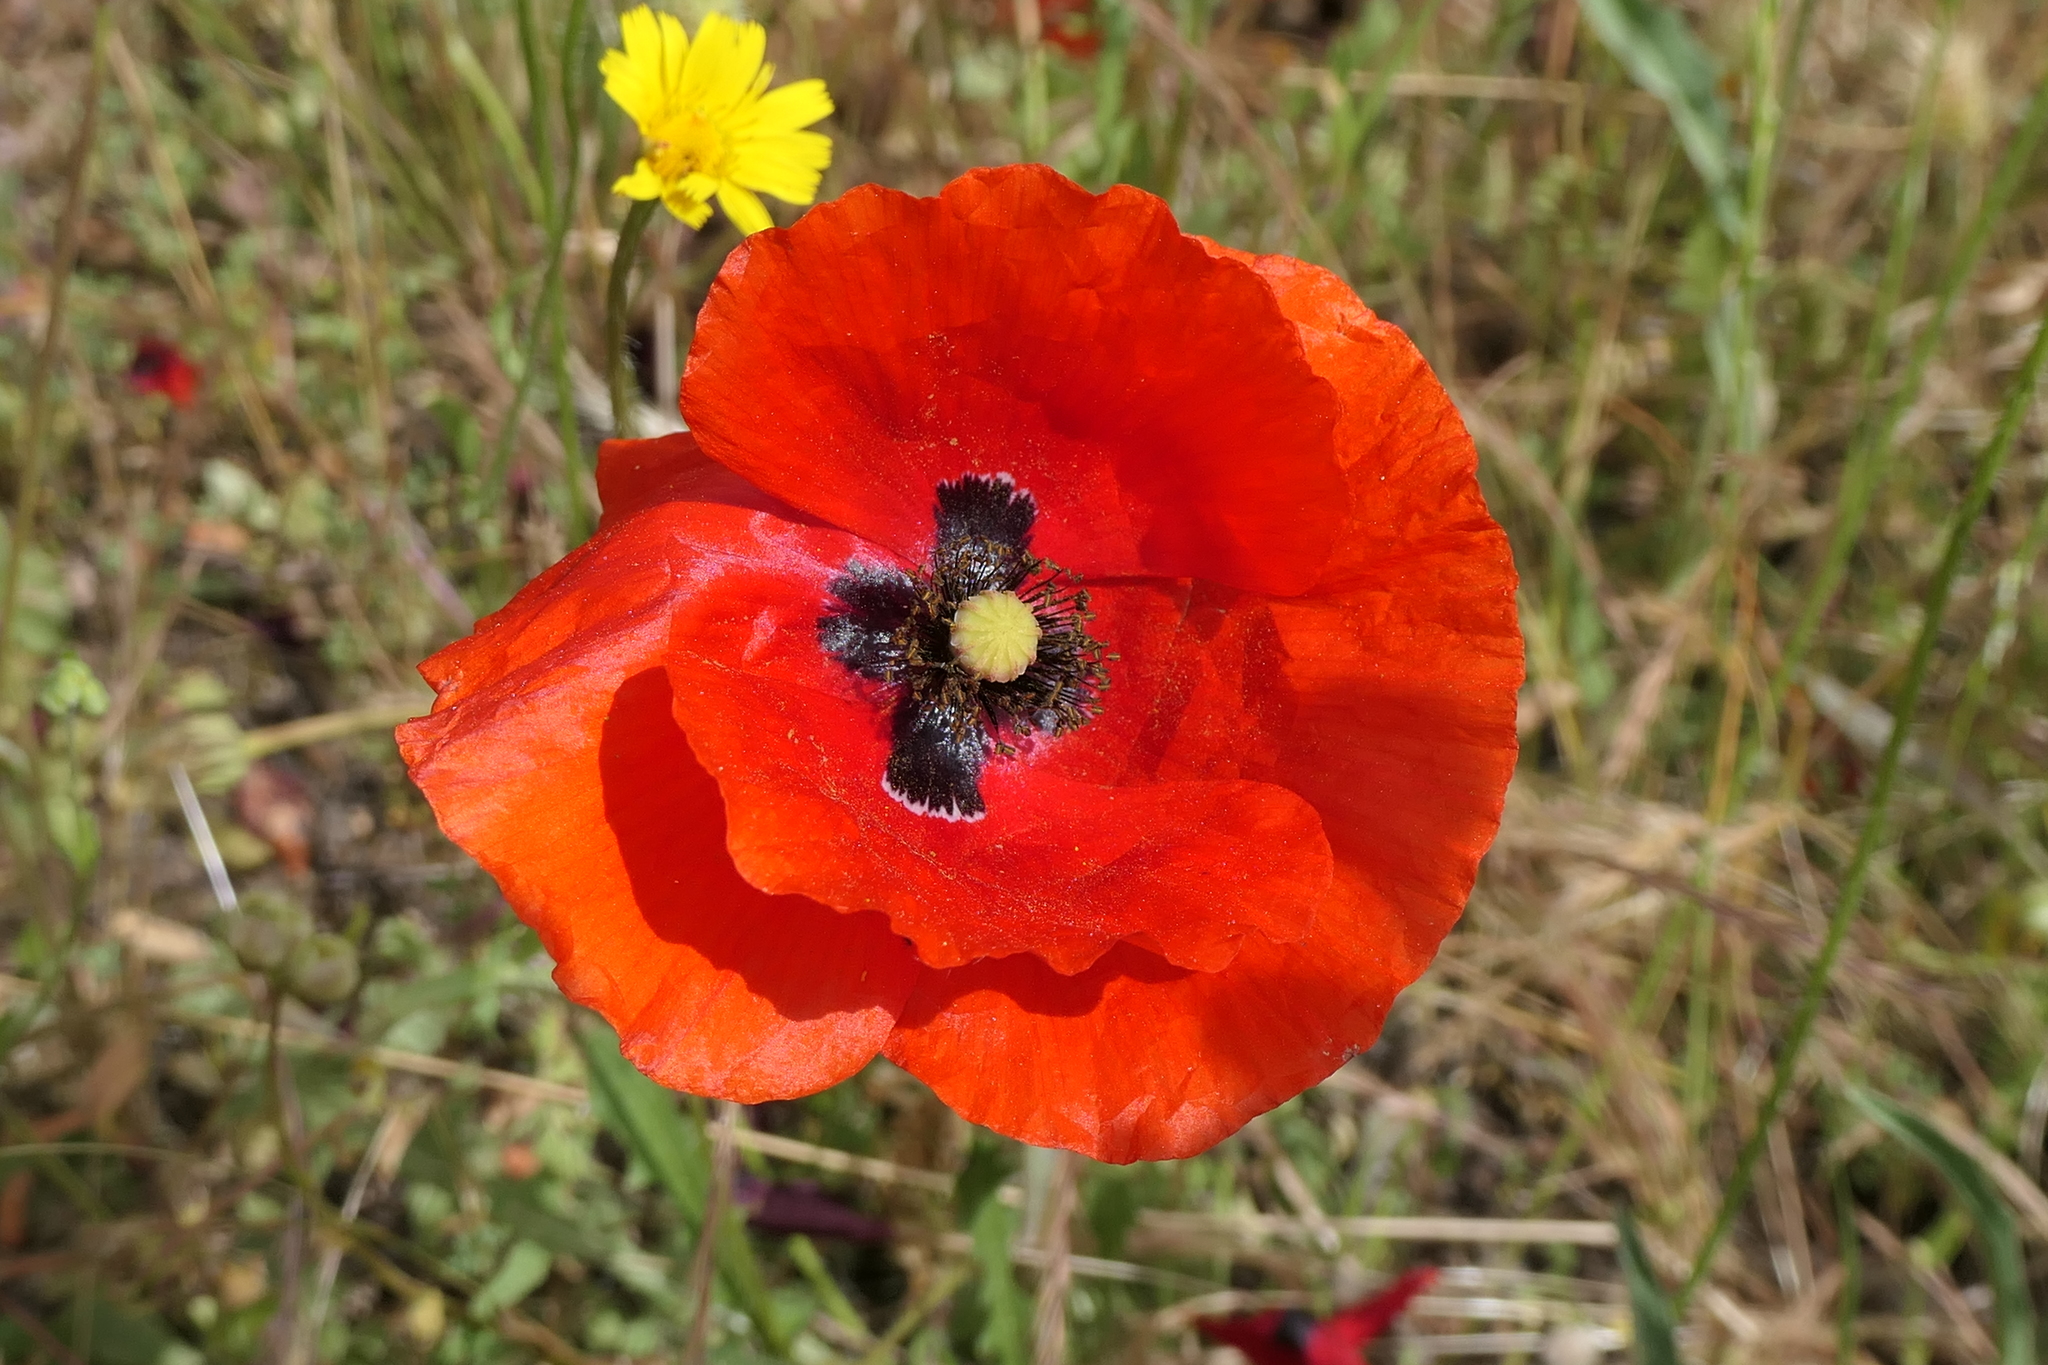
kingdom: Plantae
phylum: Tracheophyta
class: Magnoliopsida
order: Ranunculales
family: Papaveraceae
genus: Papaver
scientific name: Papaver rhoeas
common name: Corn poppy
